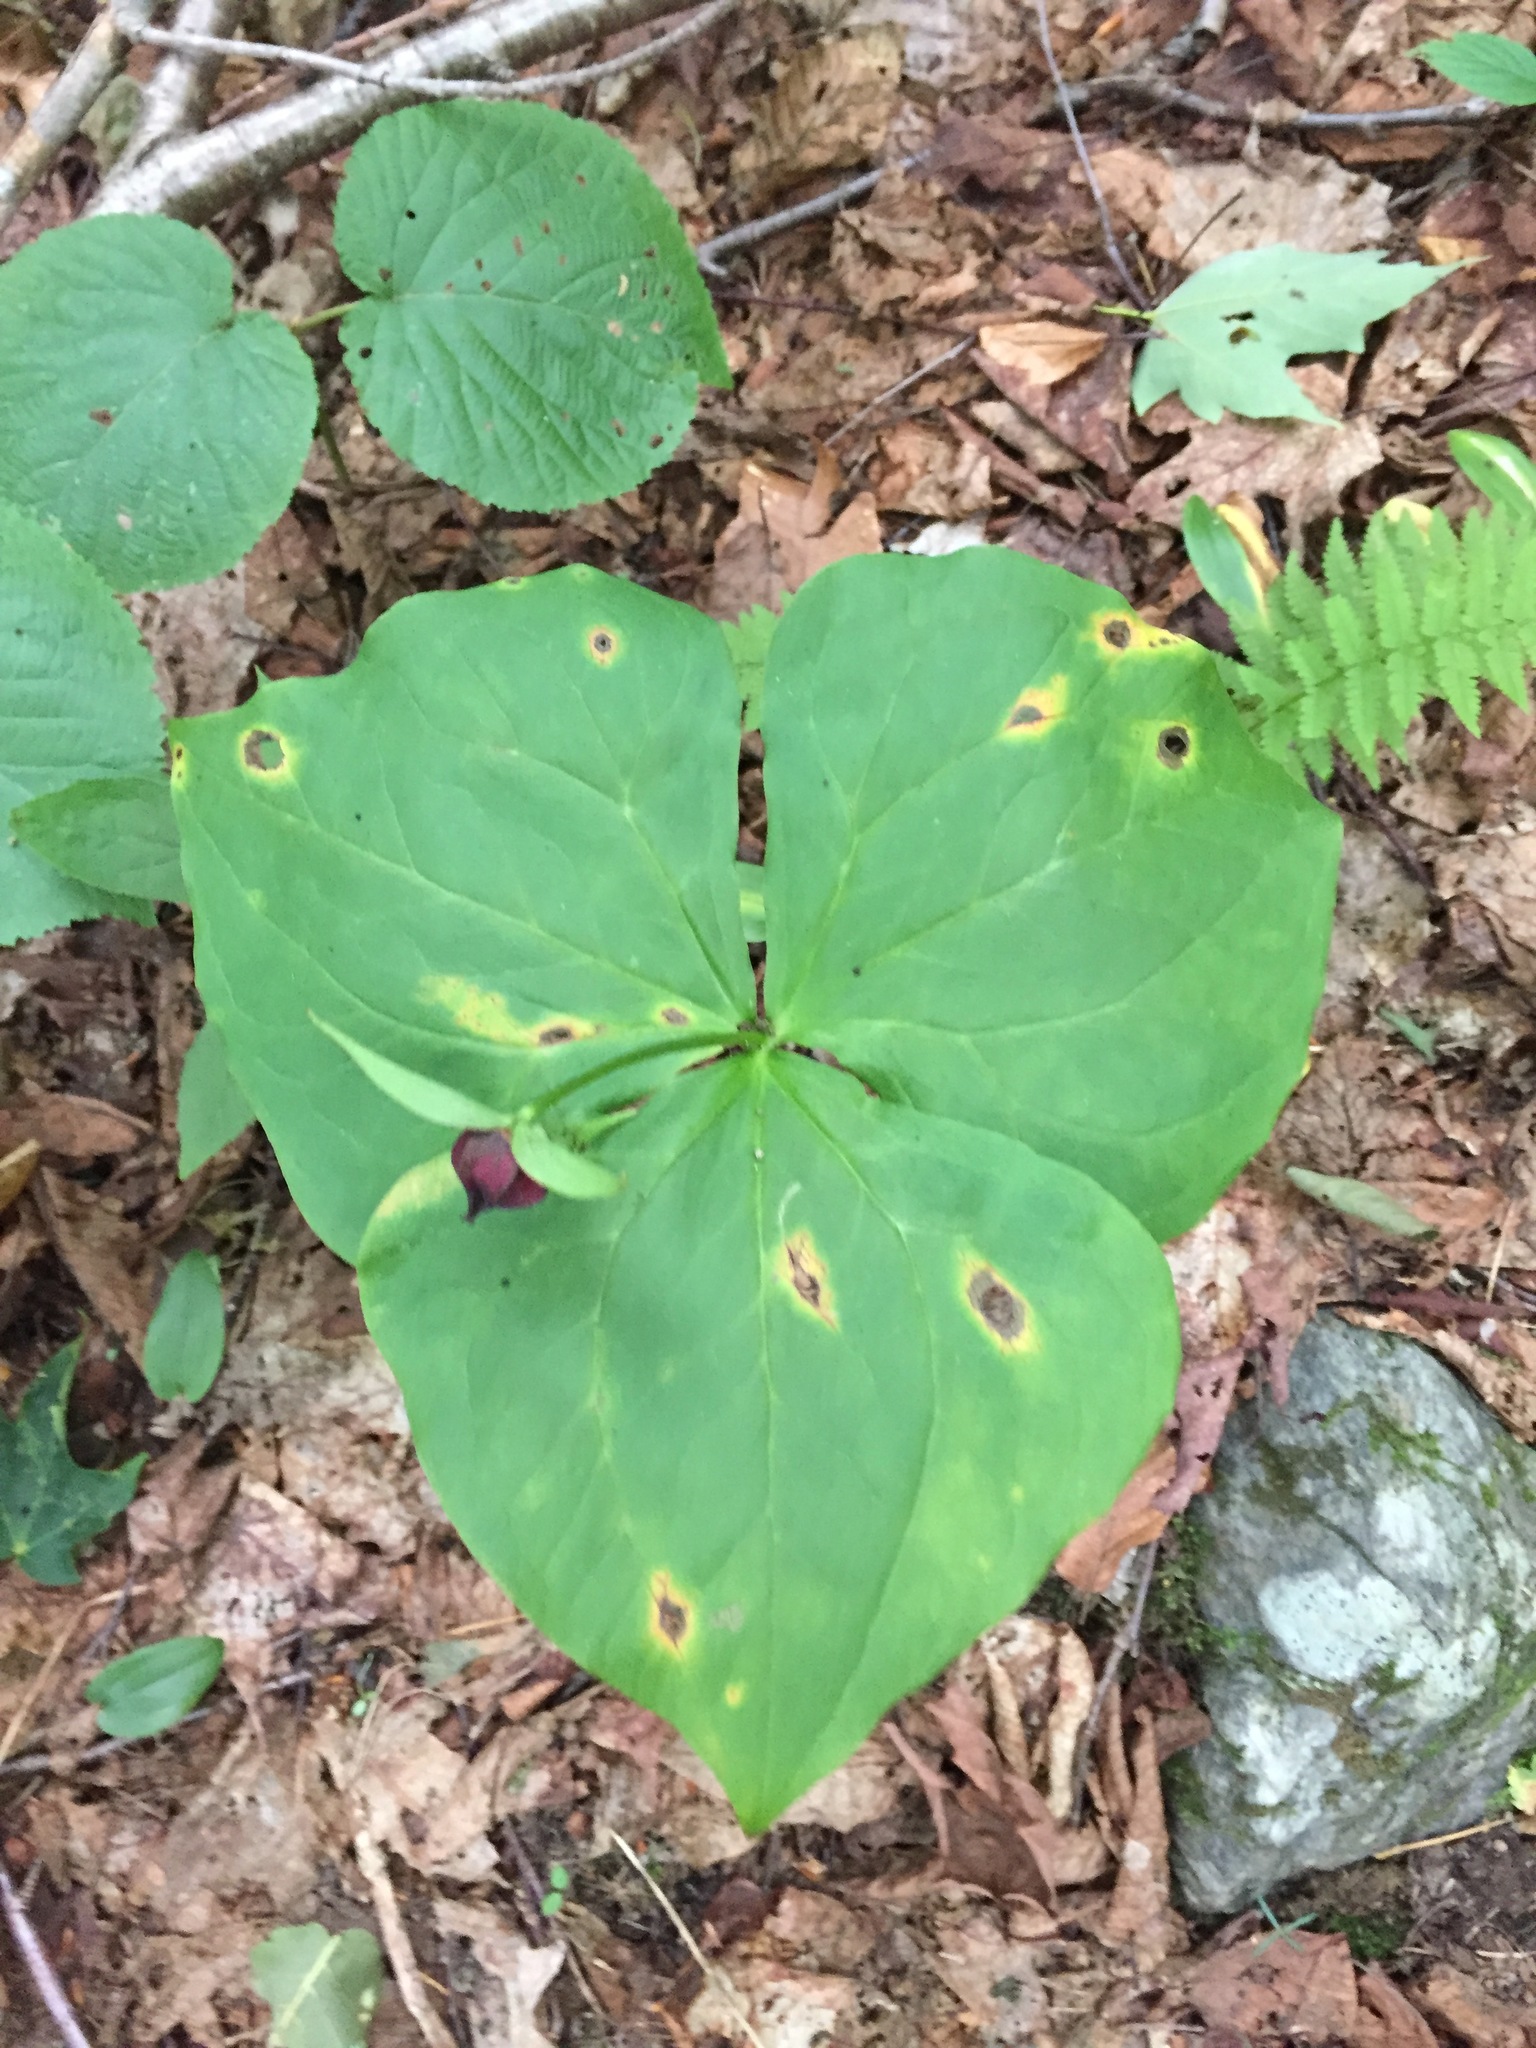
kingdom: Plantae
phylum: Tracheophyta
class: Liliopsida
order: Liliales
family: Melanthiaceae
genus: Trillium
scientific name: Trillium erectum
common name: Purple trillium
